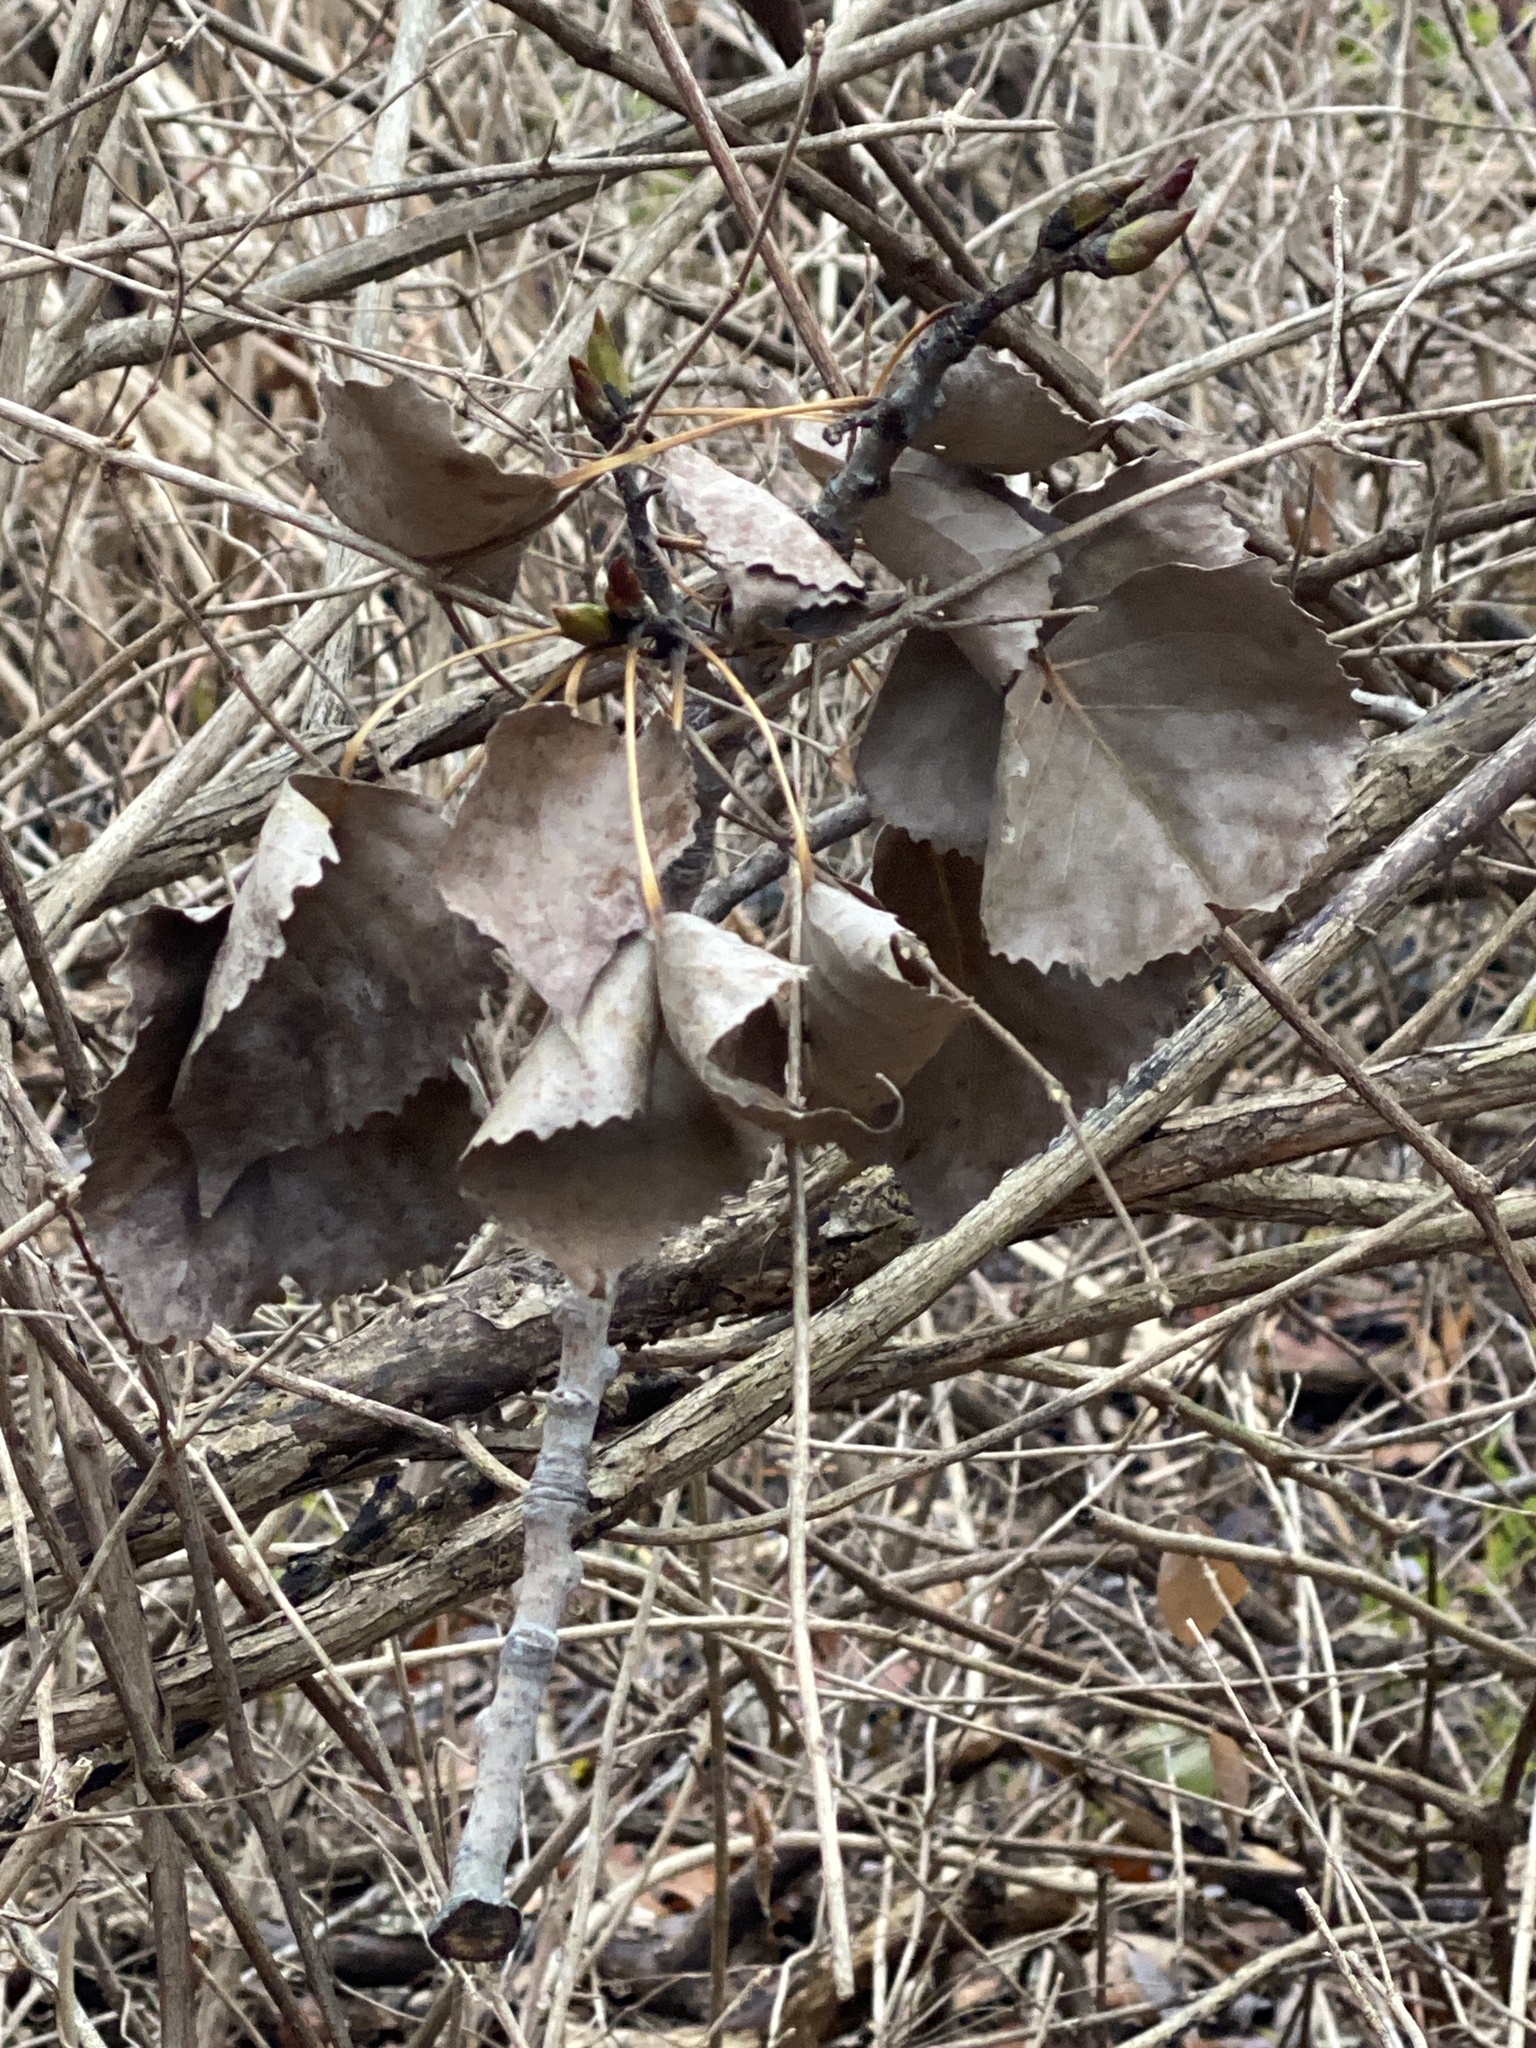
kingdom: Plantae
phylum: Tracheophyta
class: Magnoliopsida
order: Malpighiales
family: Salicaceae
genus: Populus
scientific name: Populus deltoides
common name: Eastern cottonwood
